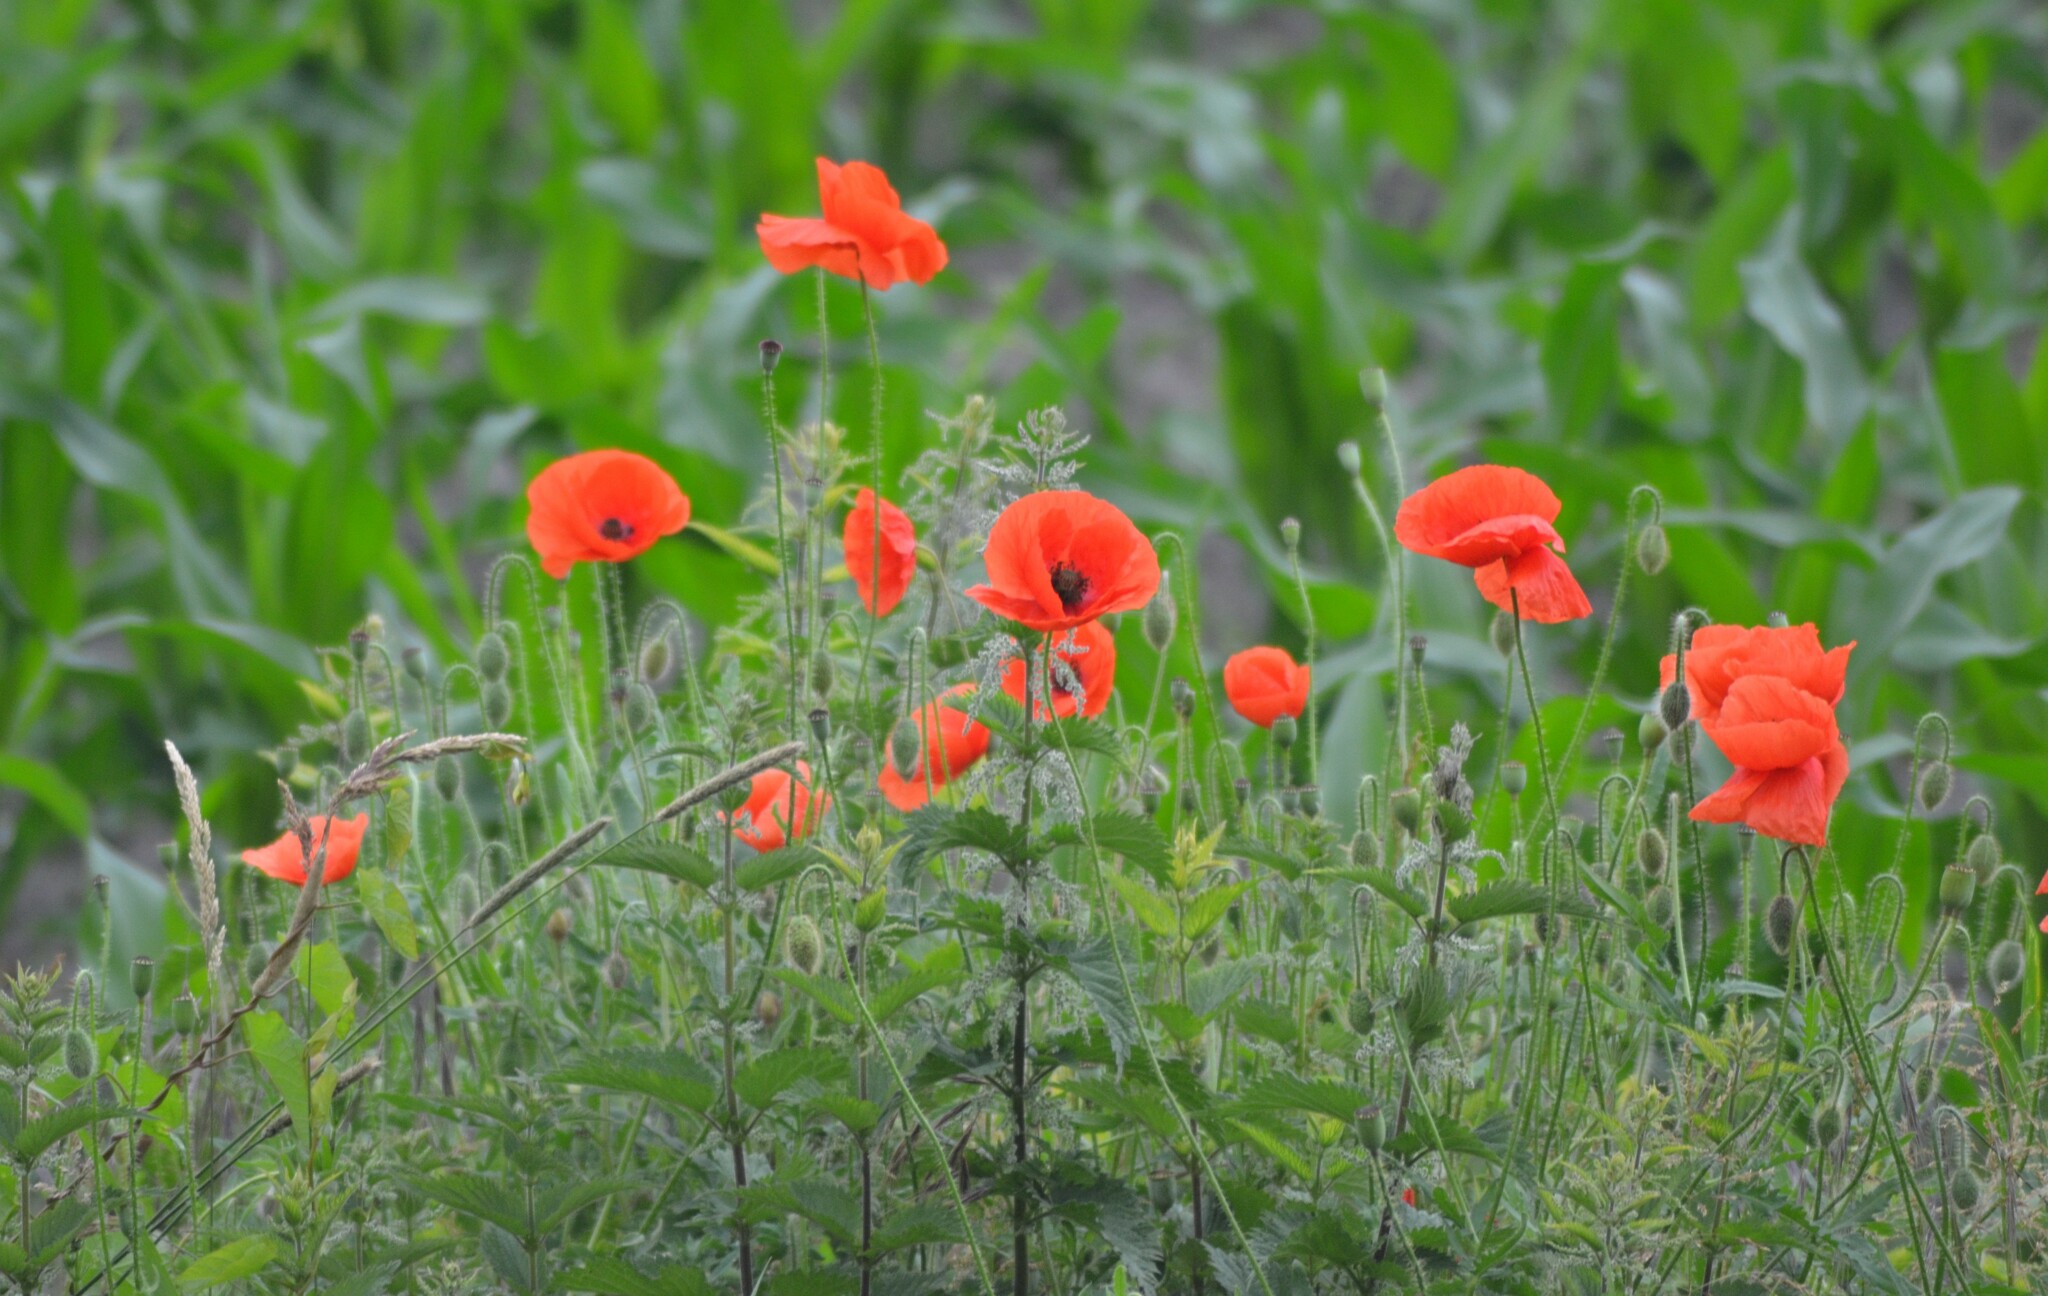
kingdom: Plantae
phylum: Tracheophyta
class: Magnoliopsida
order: Ranunculales
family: Papaveraceae
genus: Papaver
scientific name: Papaver rhoeas
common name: Corn poppy
